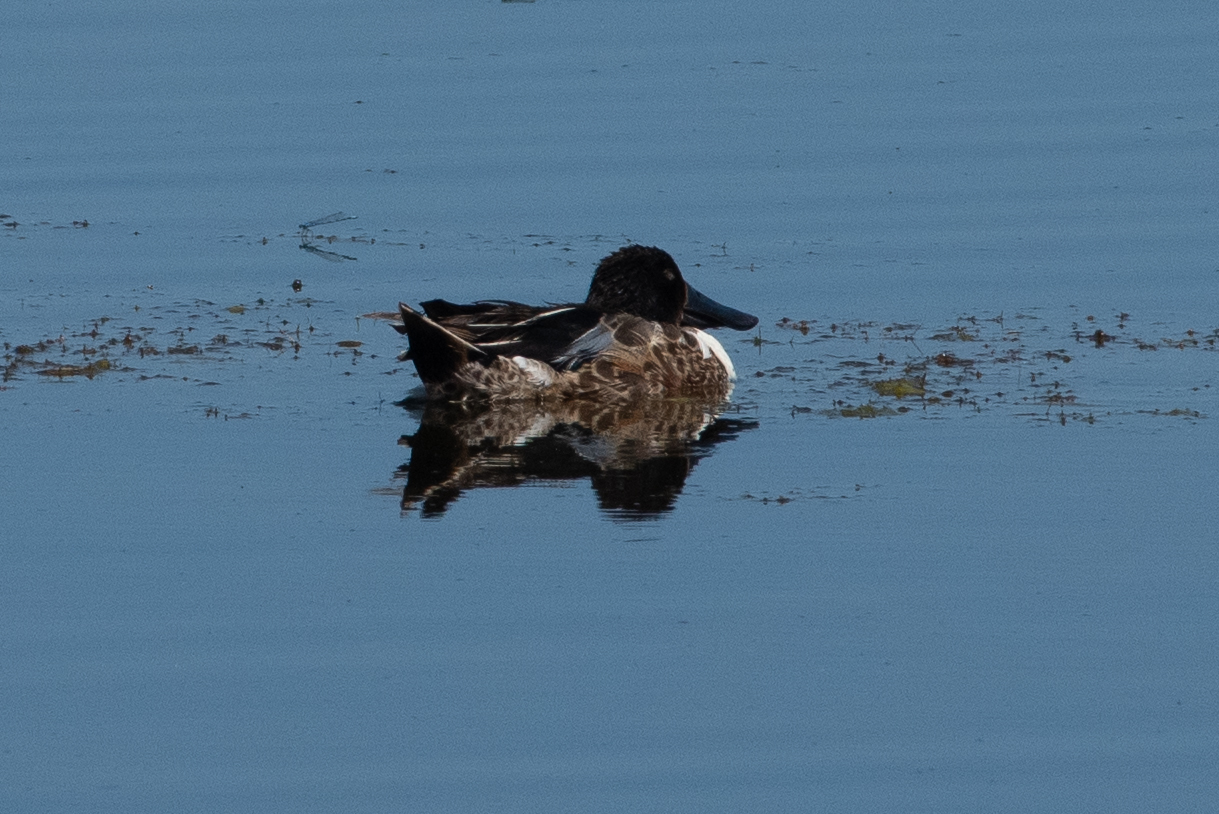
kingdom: Animalia
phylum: Chordata
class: Aves
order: Anseriformes
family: Anatidae
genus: Spatula
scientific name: Spatula clypeata
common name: Northern shoveler
